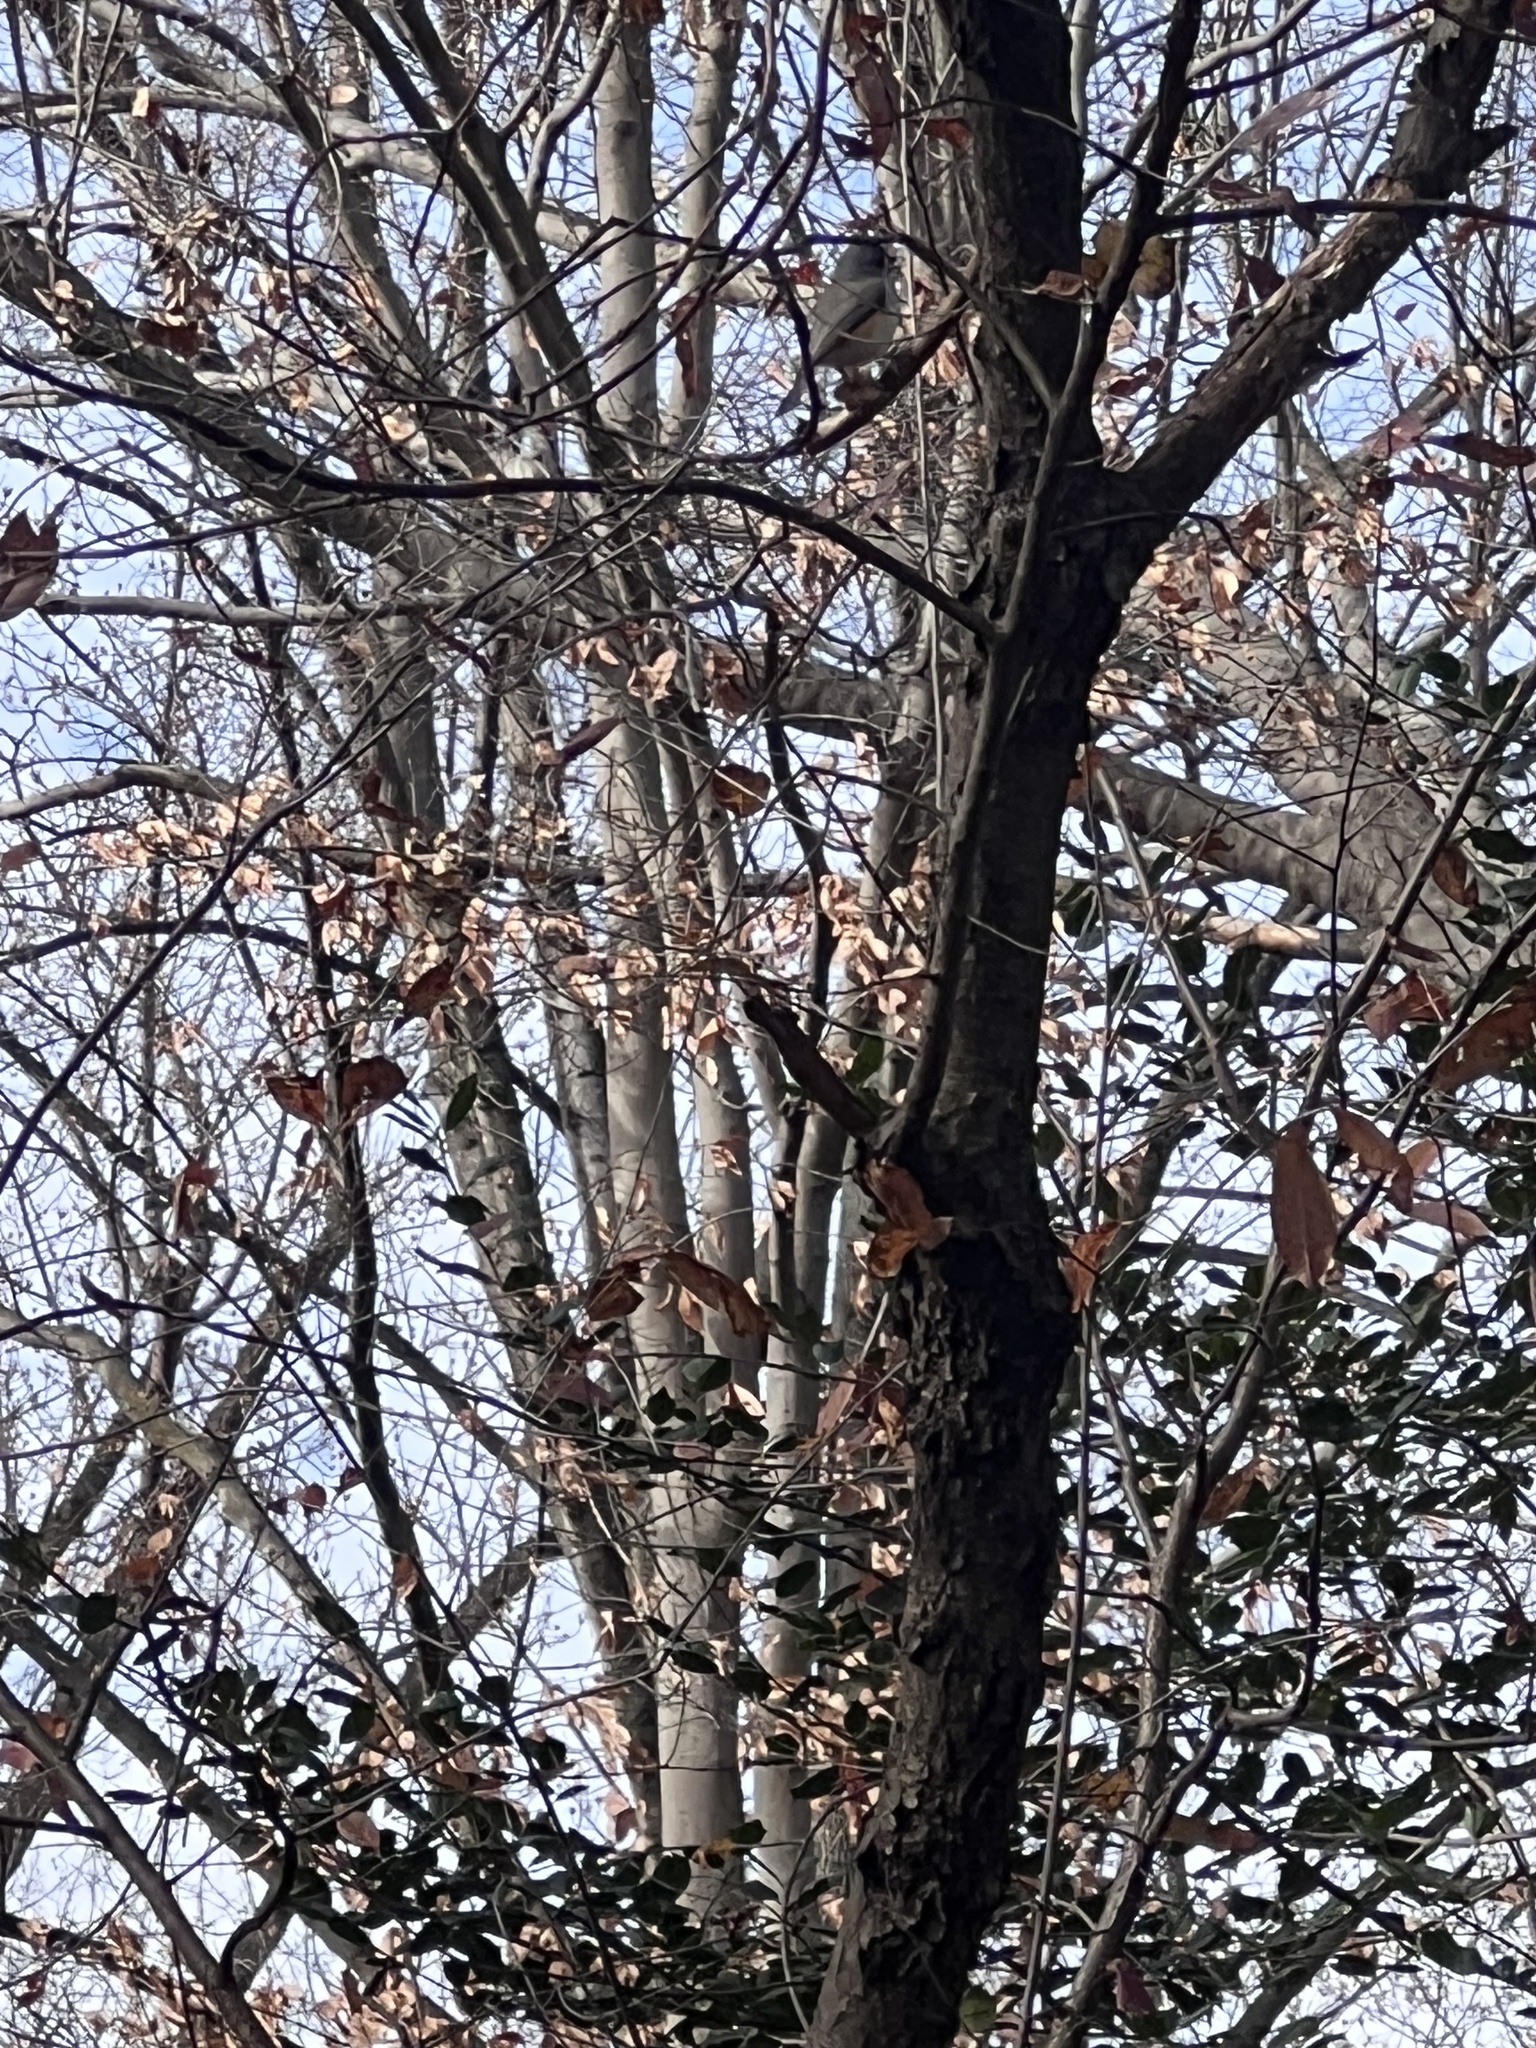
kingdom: Animalia
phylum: Chordata
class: Aves
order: Passeriformes
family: Paridae
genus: Baeolophus
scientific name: Baeolophus bicolor
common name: Tufted titmouse
